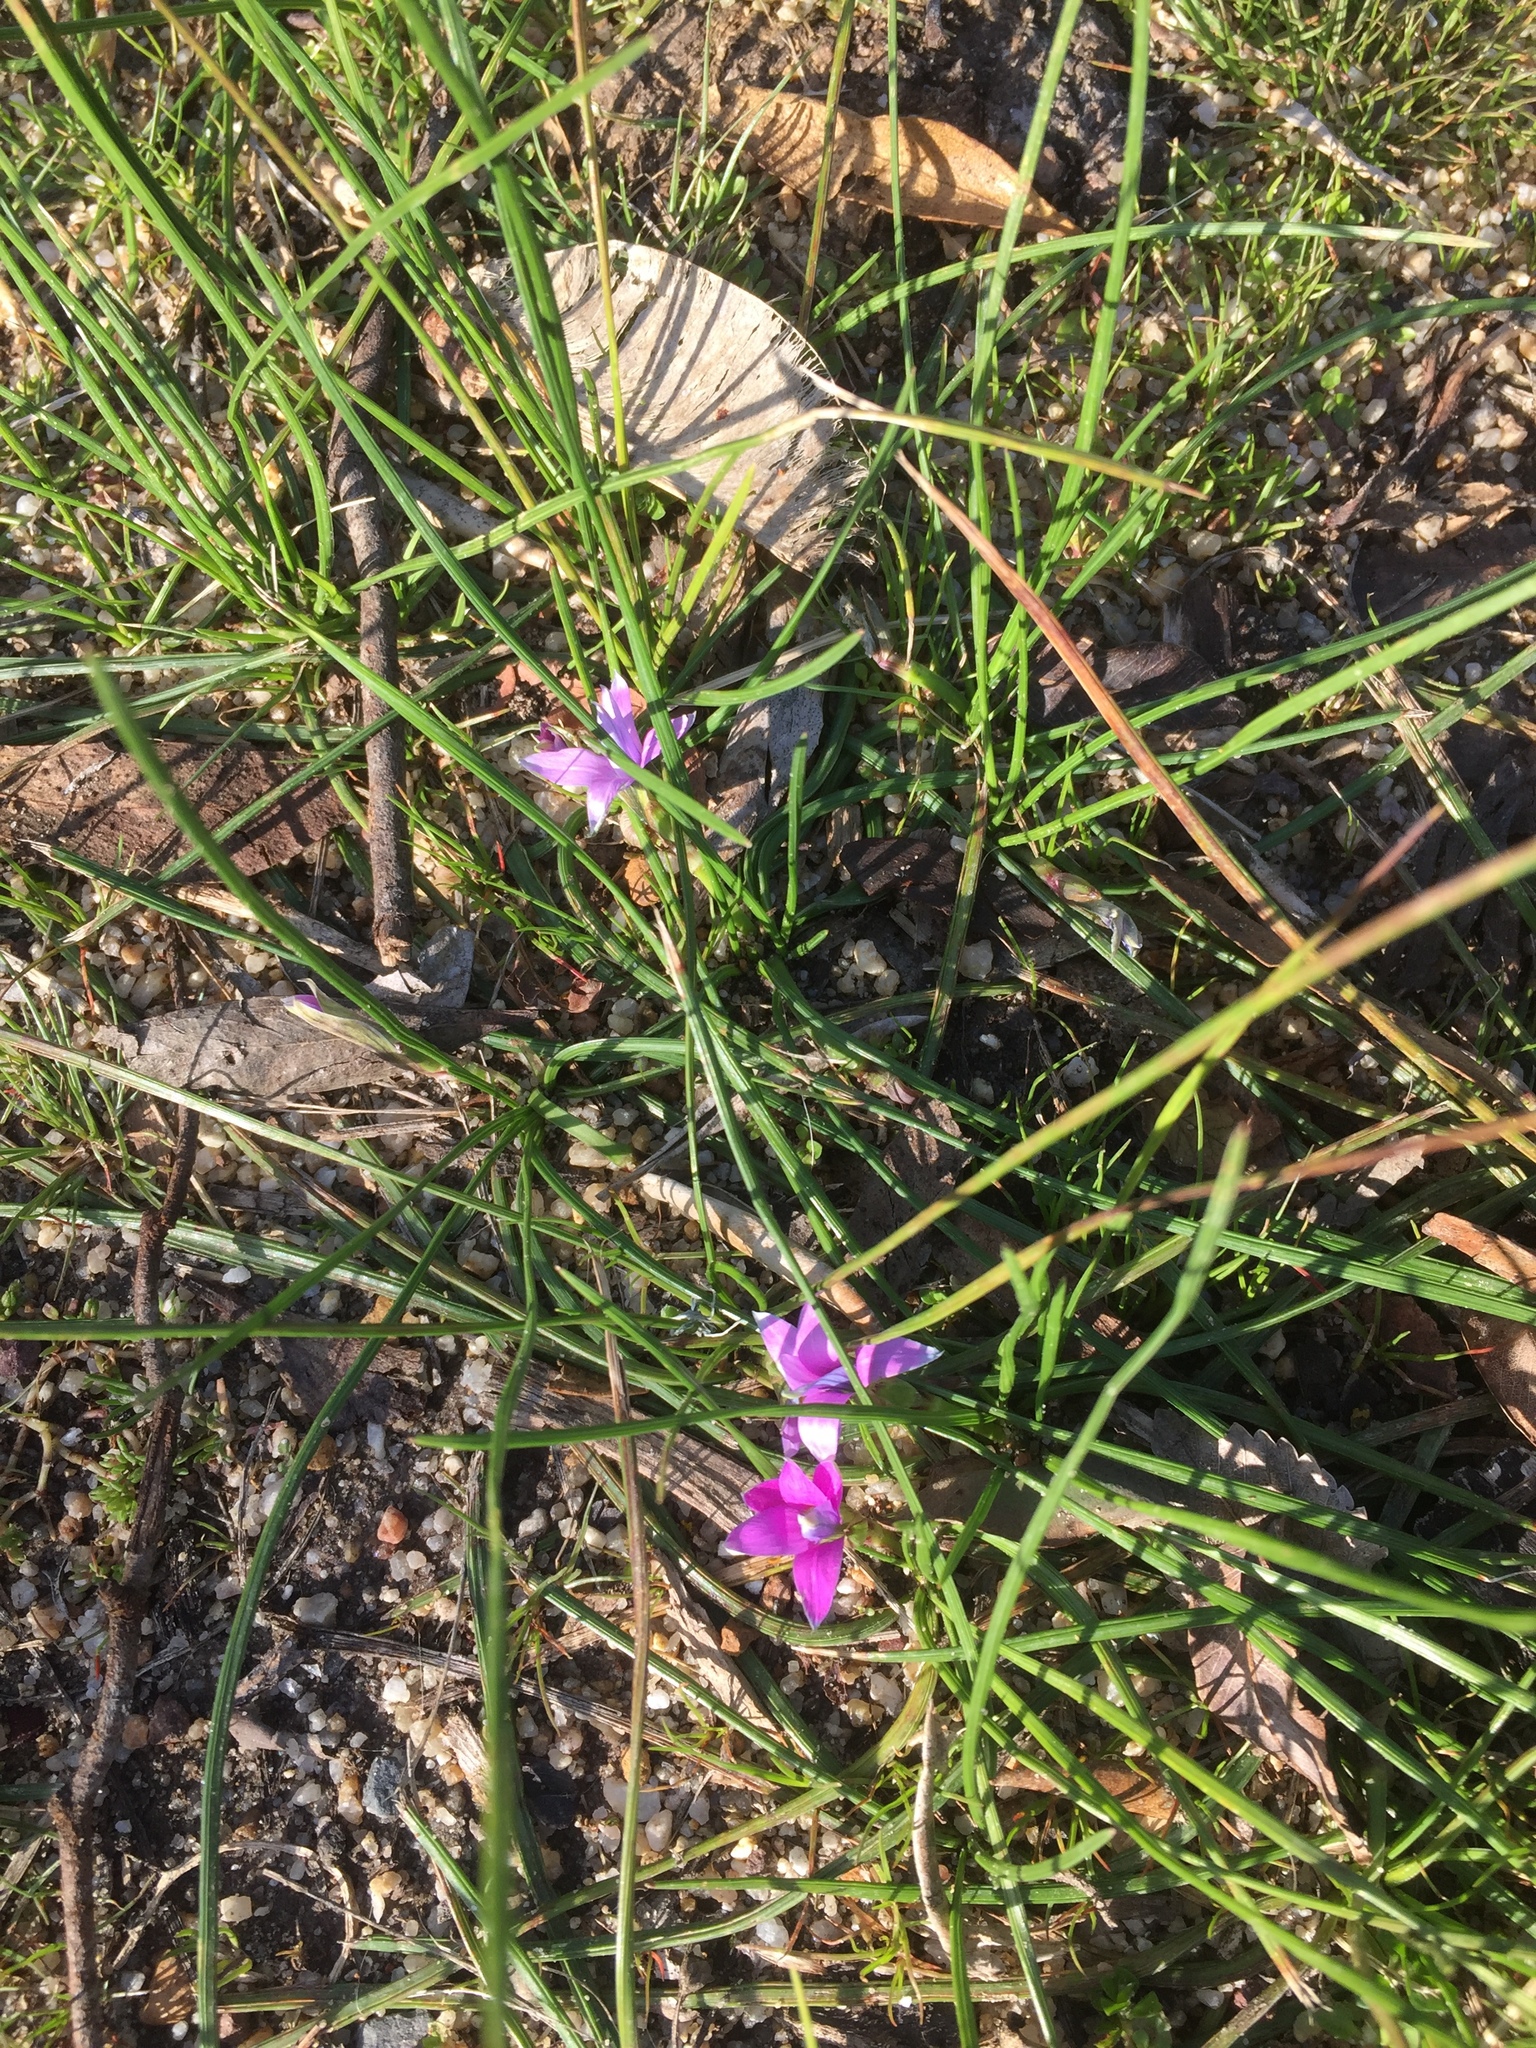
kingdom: Plantae
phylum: Tracheophyta
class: Liliopsida
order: Asparagales
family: Iridaceae
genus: Romulea
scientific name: Romulea rosea
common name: Oniongrass
